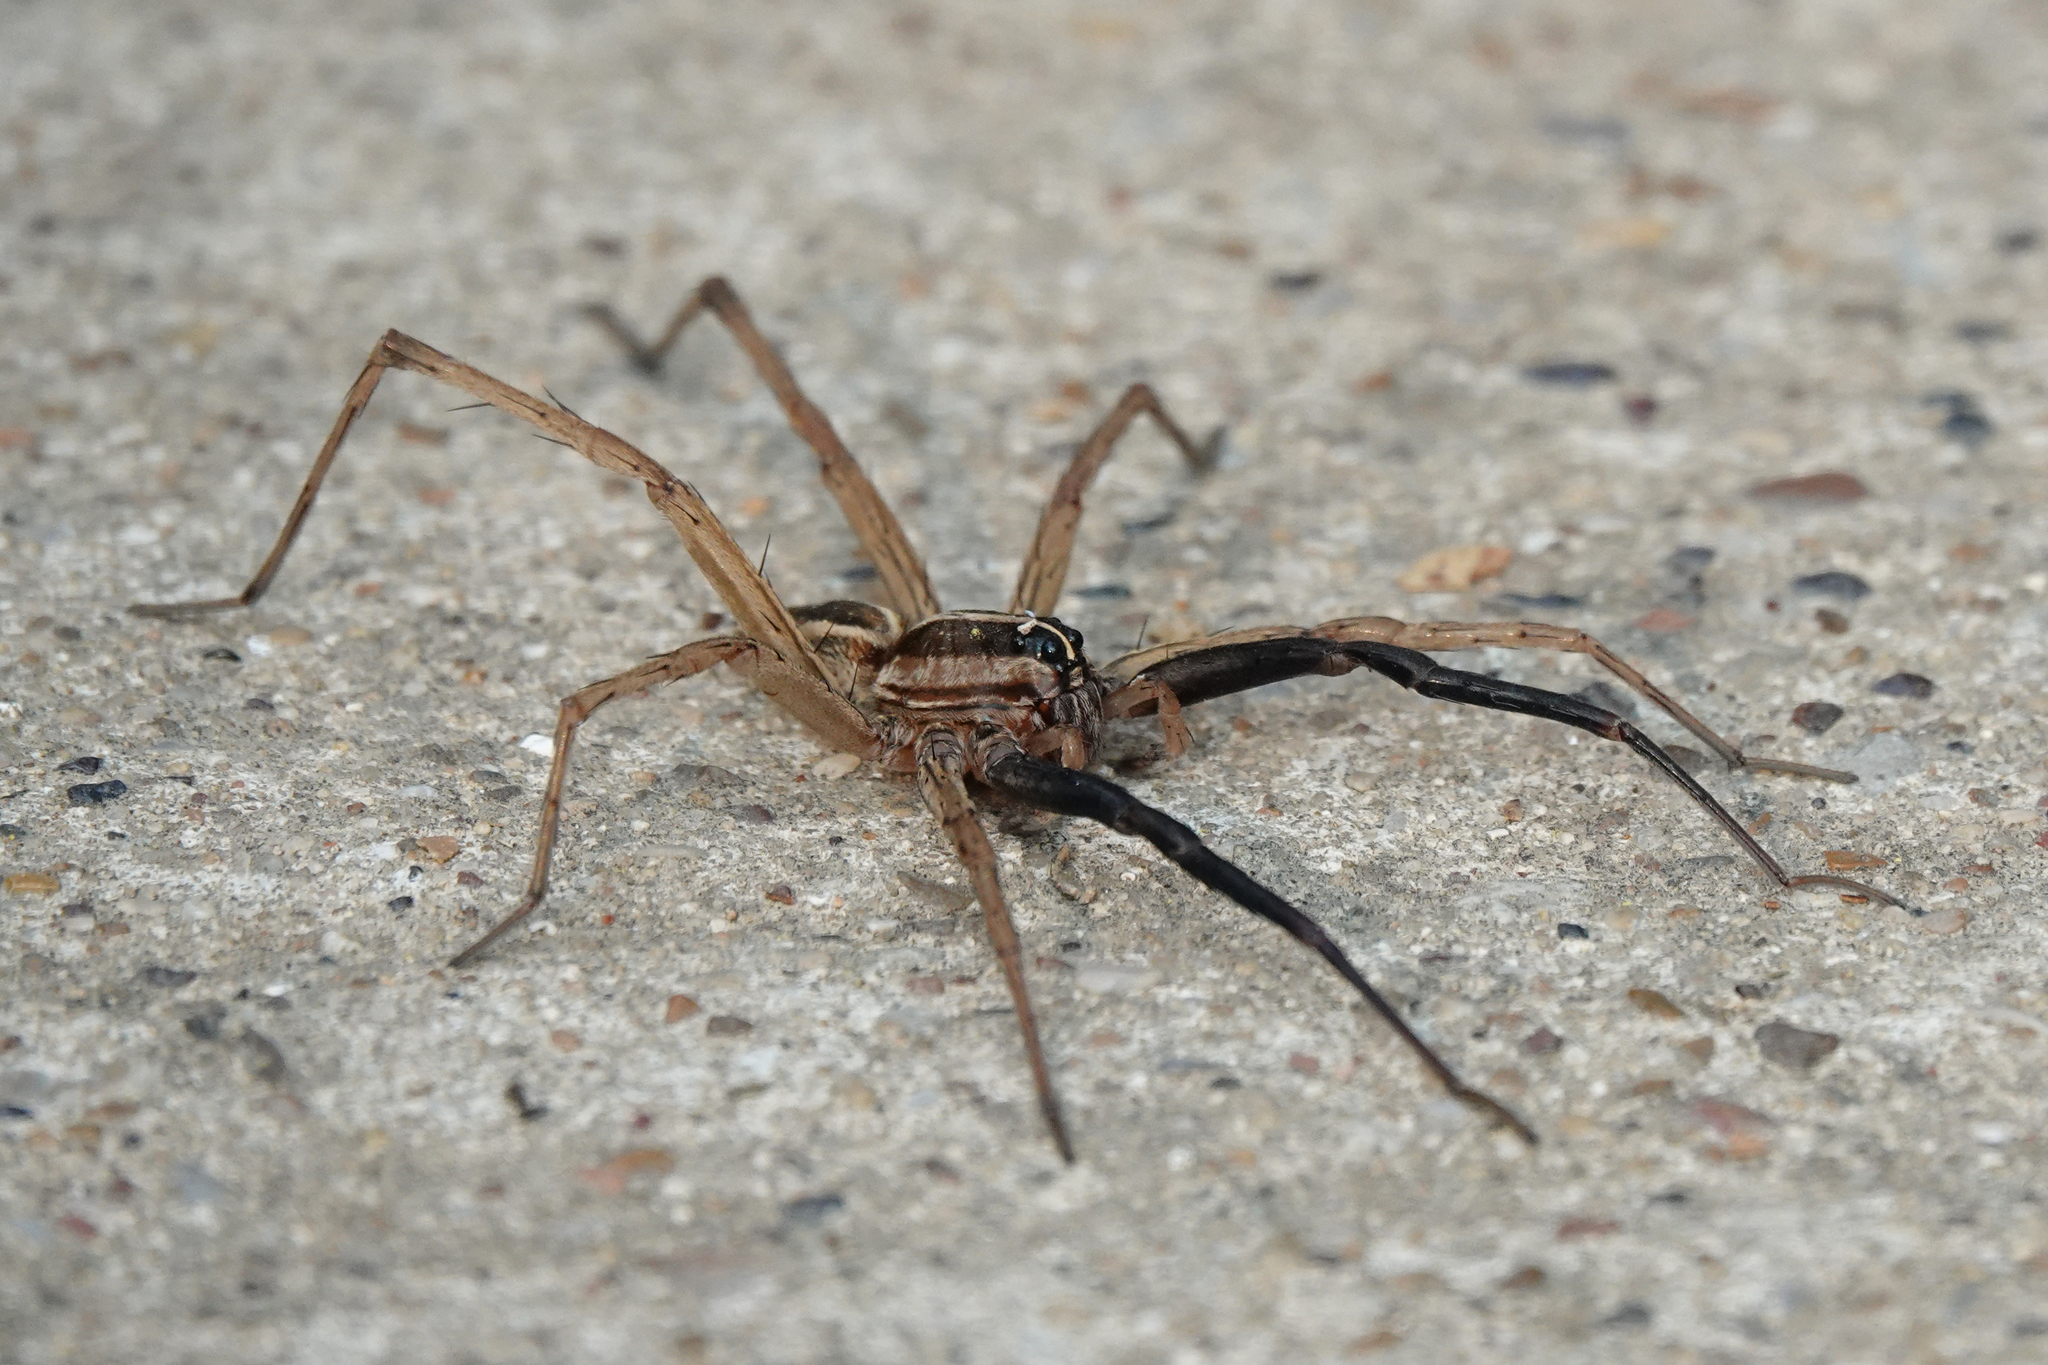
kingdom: Animalia
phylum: Arthropoda
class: Arachnida
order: Araneae
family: Lycosidae
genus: Rabidosa
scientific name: Rabidosa rabida
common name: Rabid wolf spider
